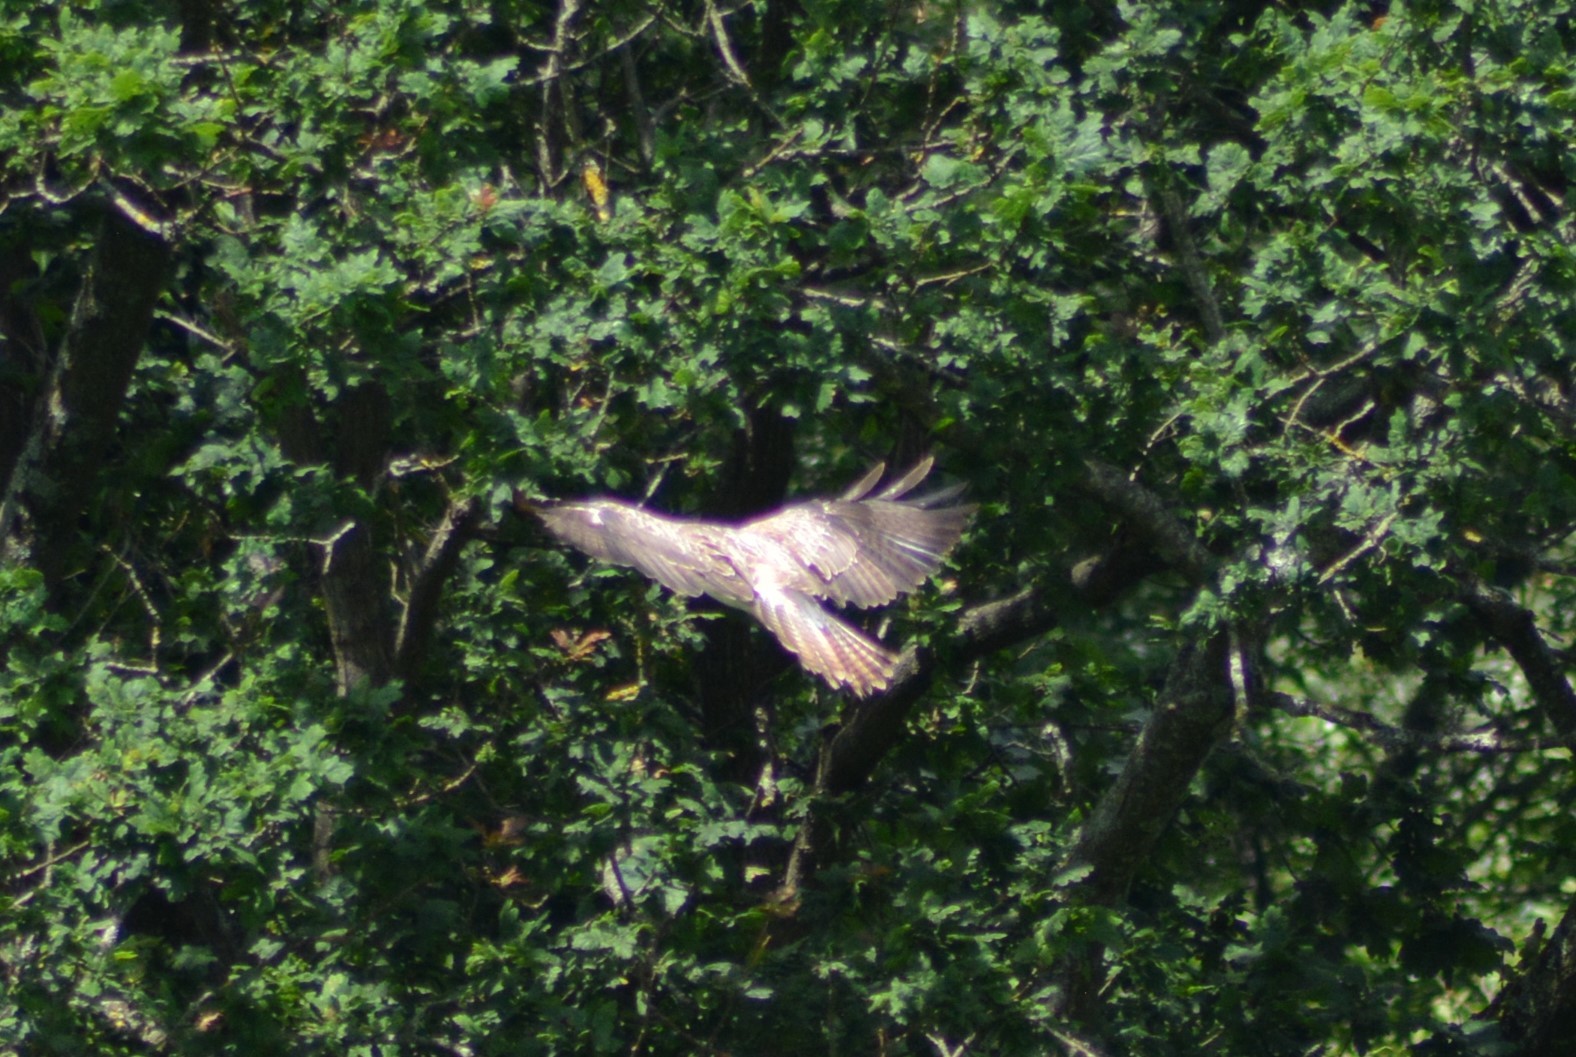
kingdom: Animalia
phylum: Chordata
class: Aves
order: Accipitriformes
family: Accipitridae
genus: Buteo
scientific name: Buteo buteo
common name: Common buzzard
